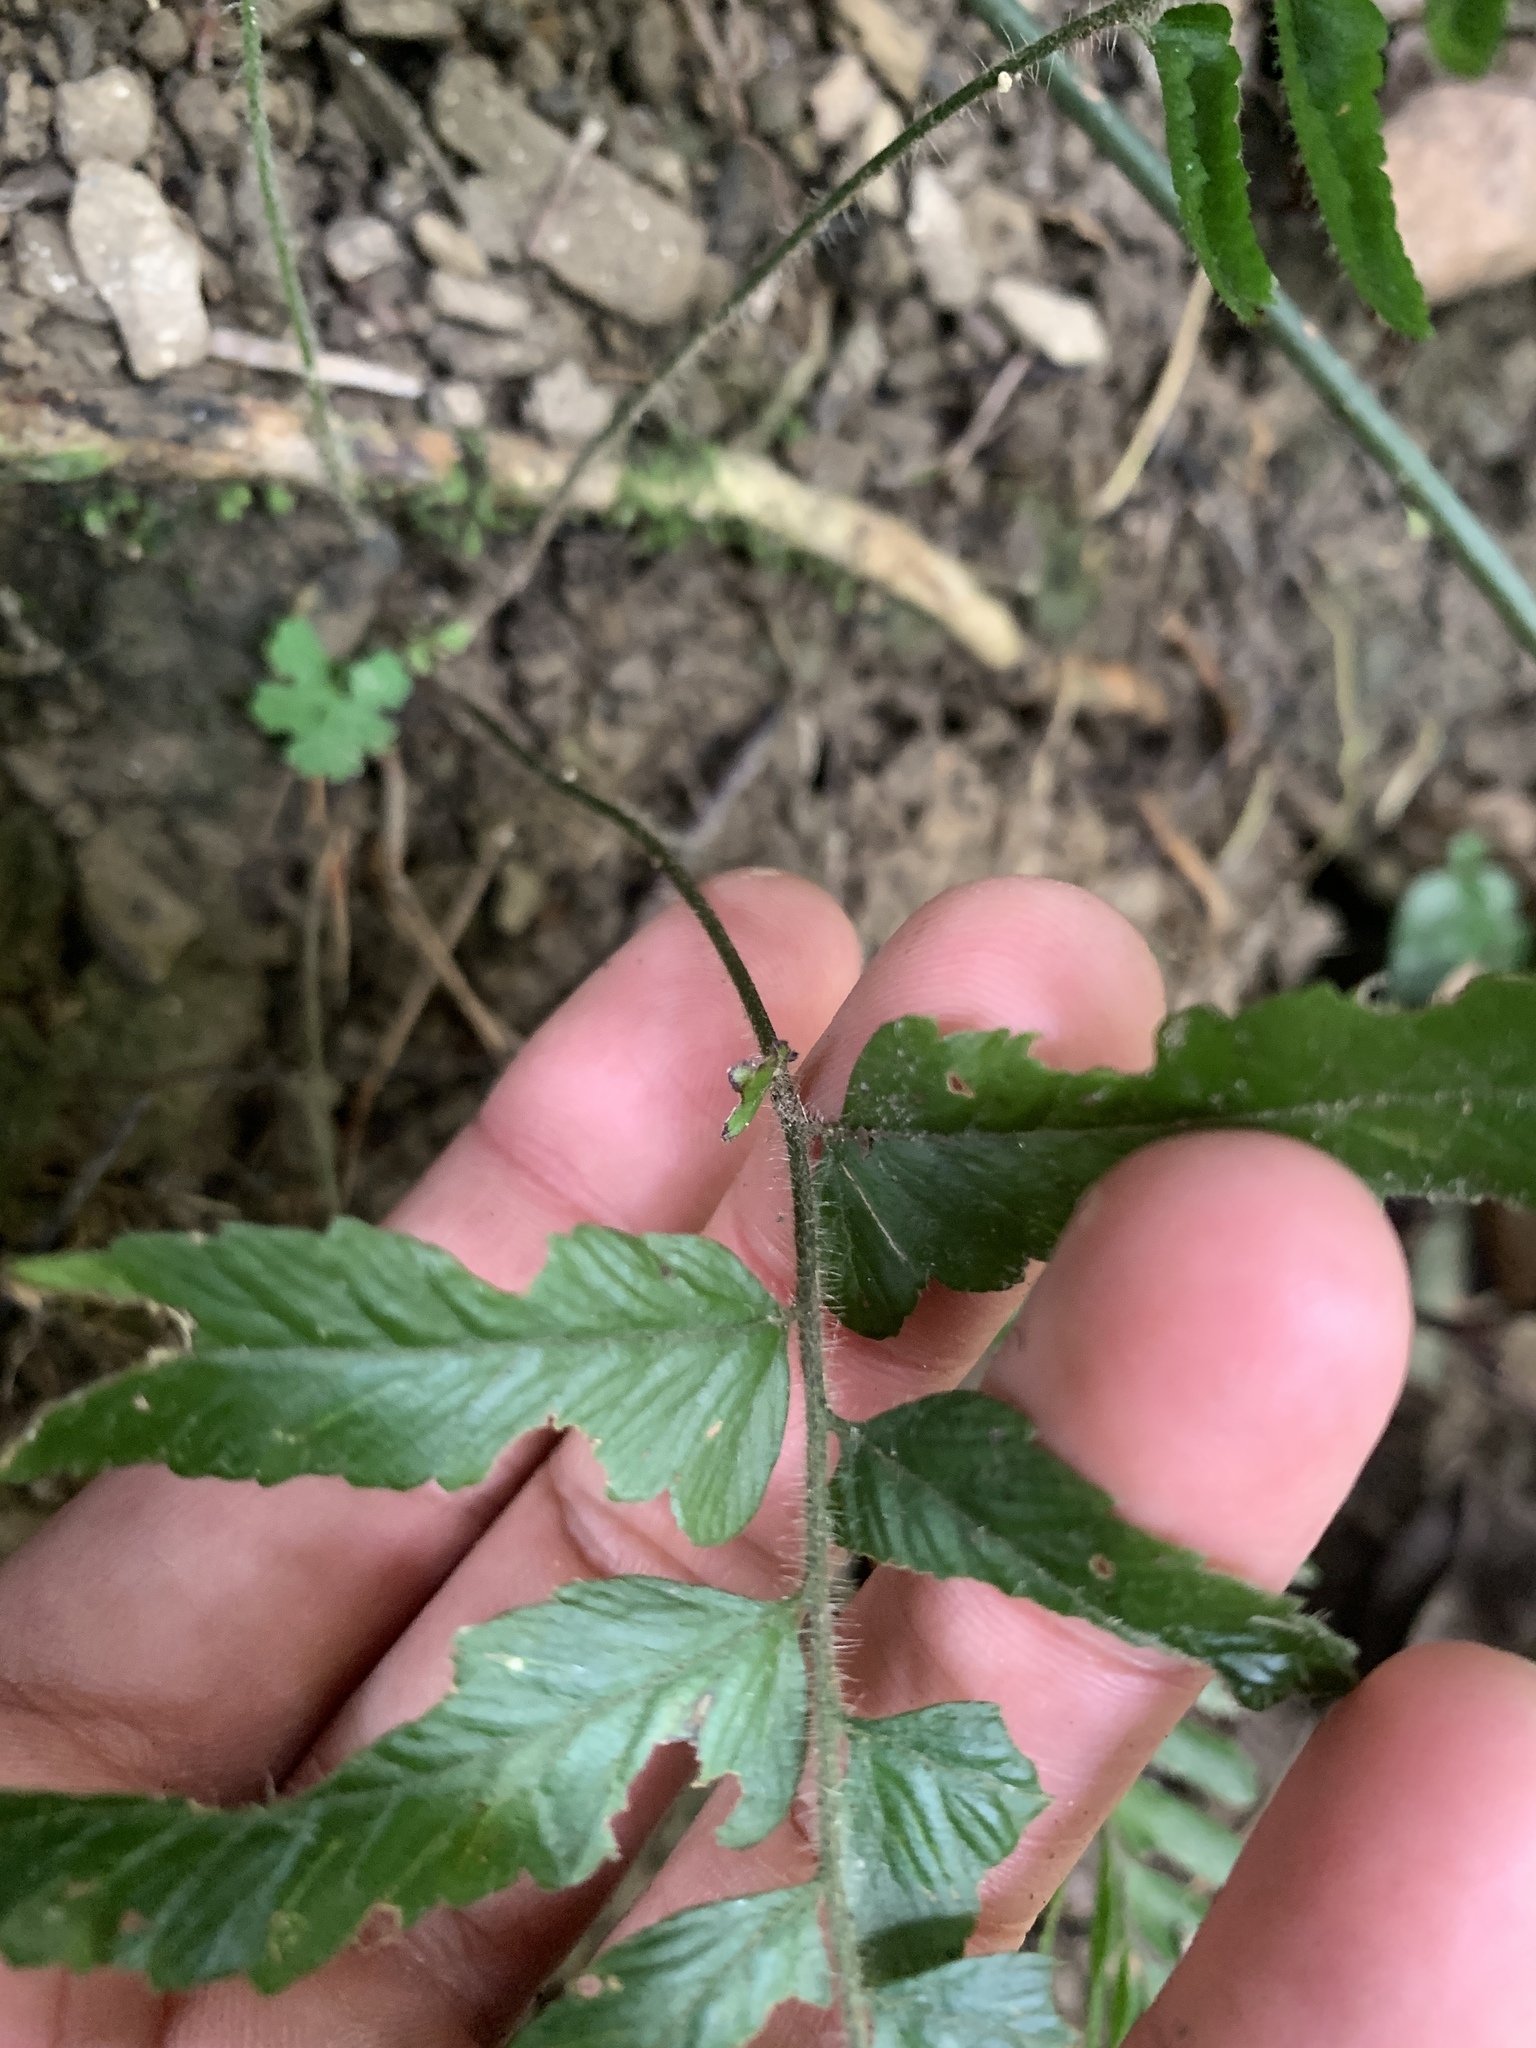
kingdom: Plantae
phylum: Tracheophyta
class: Polypodiopsida
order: Polypodiales
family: Dennstaedtiaceae
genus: Microlepia
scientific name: Microlepia marginata
